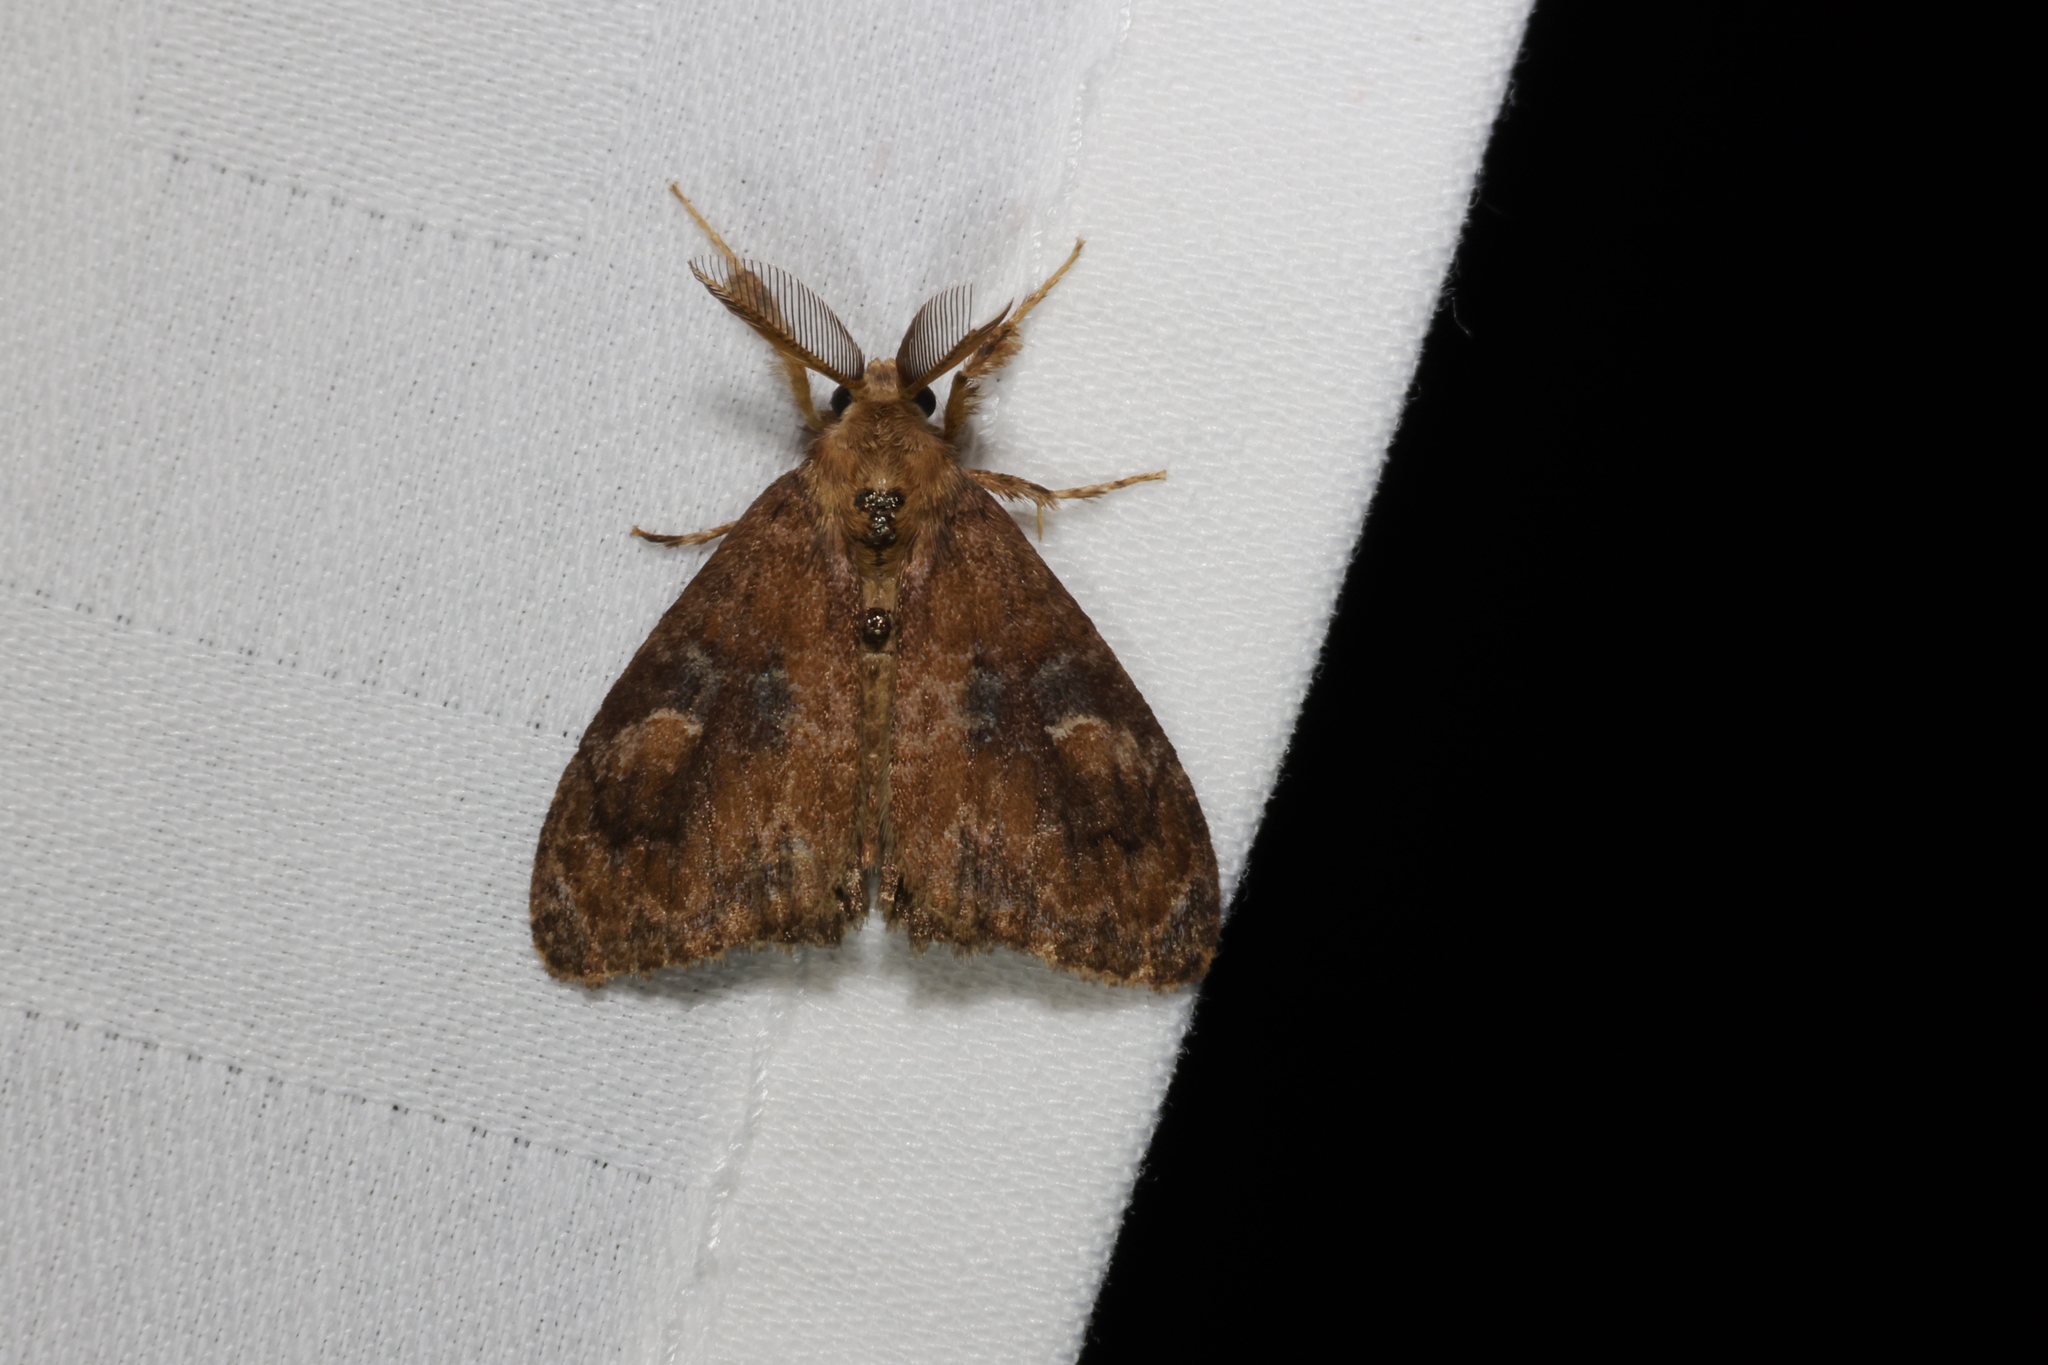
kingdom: Animalia
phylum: Arthropoda
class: Insecta
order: Lepidoptera
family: Erebidae
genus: Orgyia
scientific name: Orgyia postica
